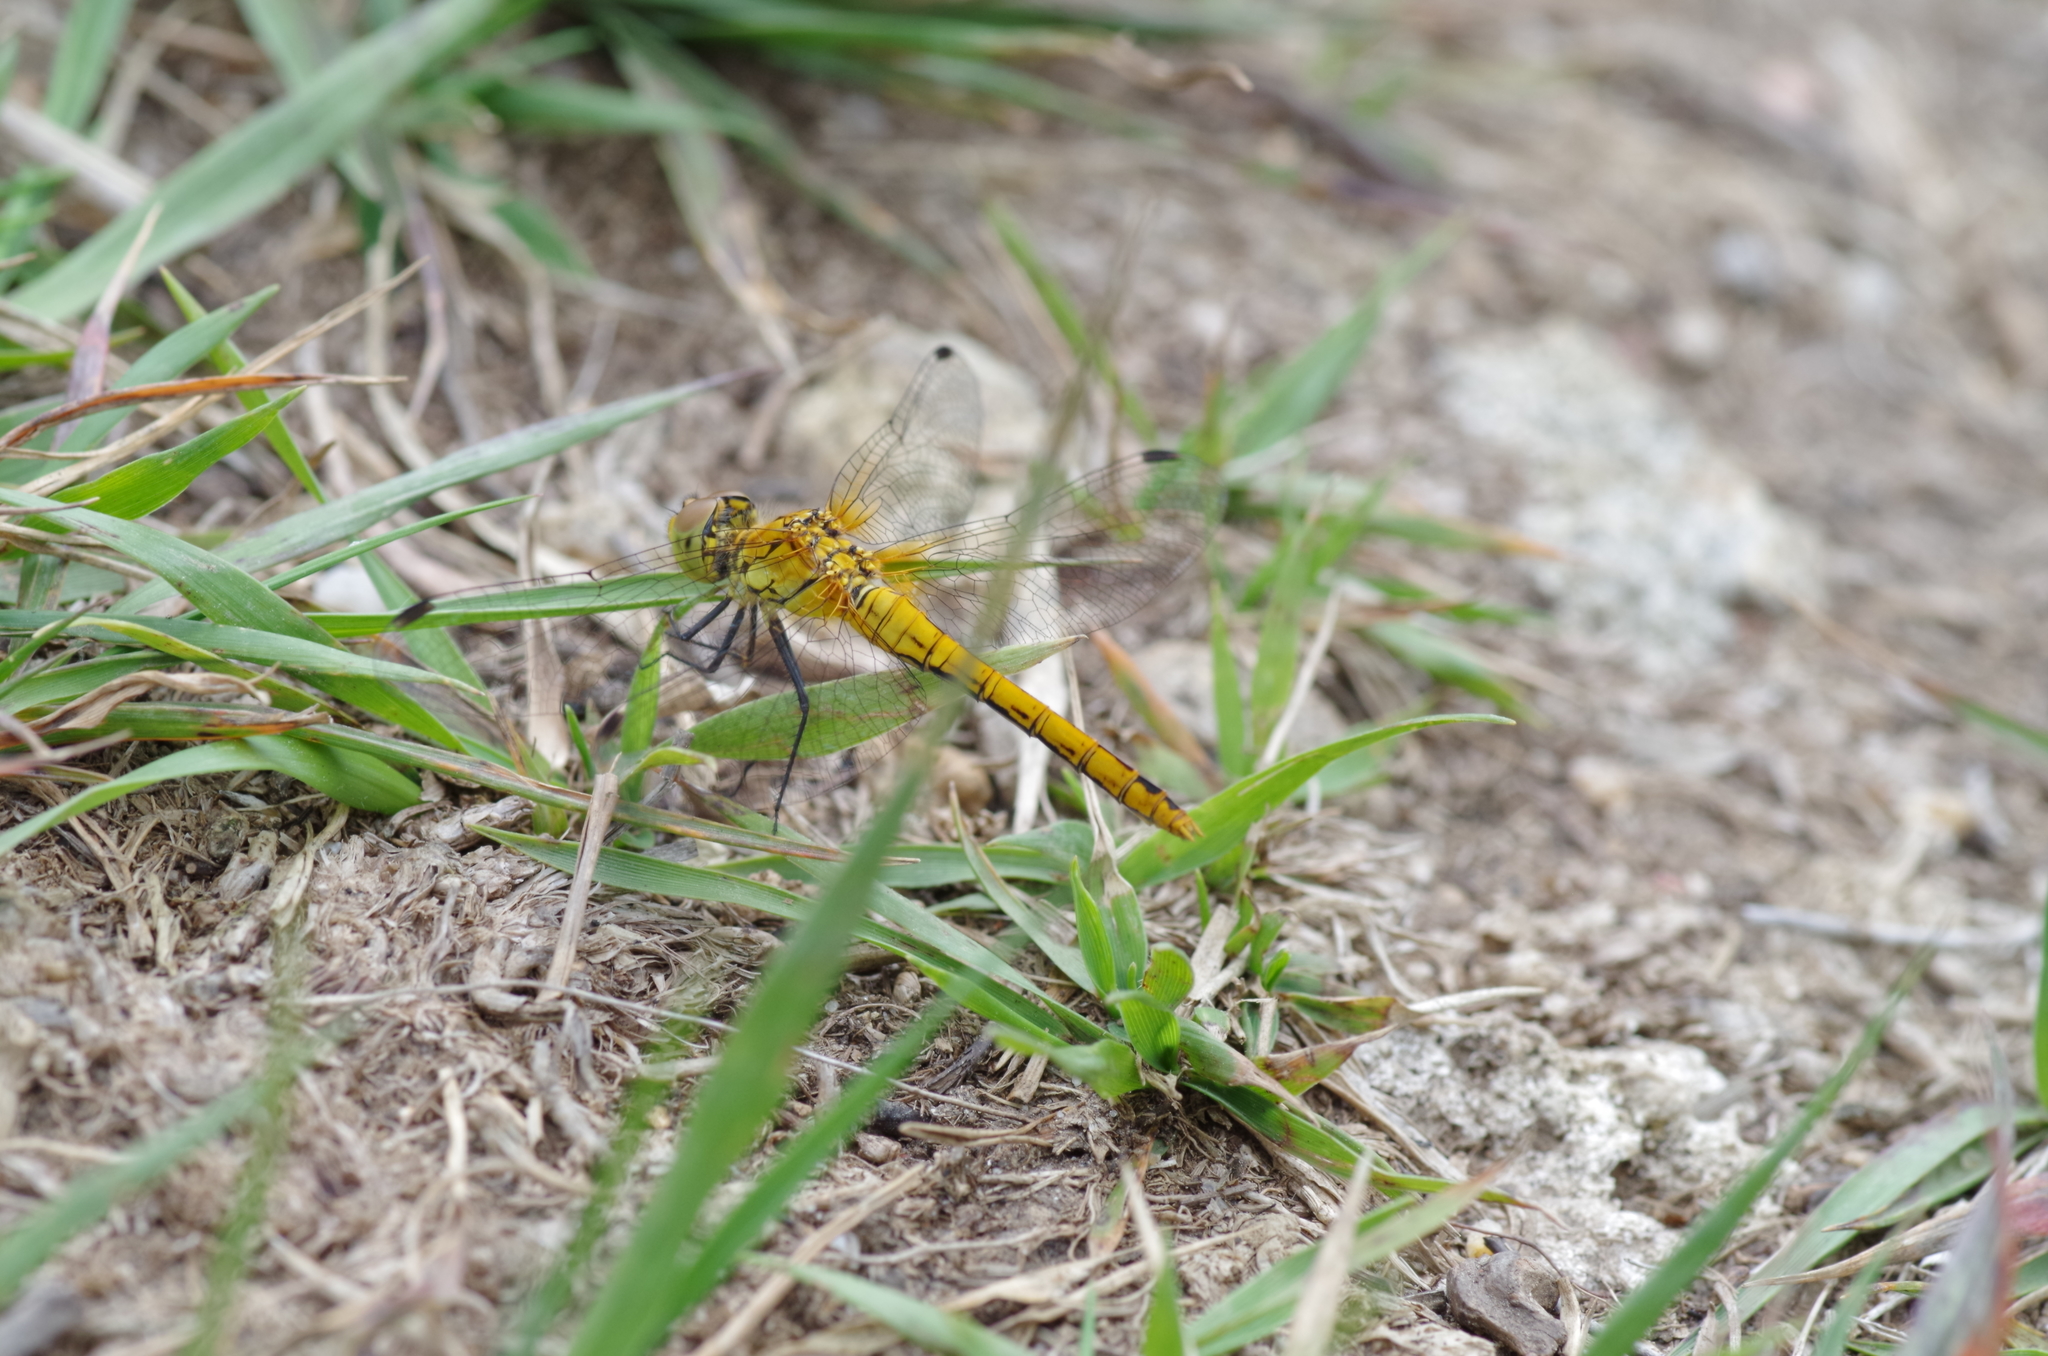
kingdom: Animalia
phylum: Arthropoda
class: Insecta
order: Odonata
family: Libellulidae
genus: Sympetrum
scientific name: Sympetrum sanguineum
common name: Ruddy darter
